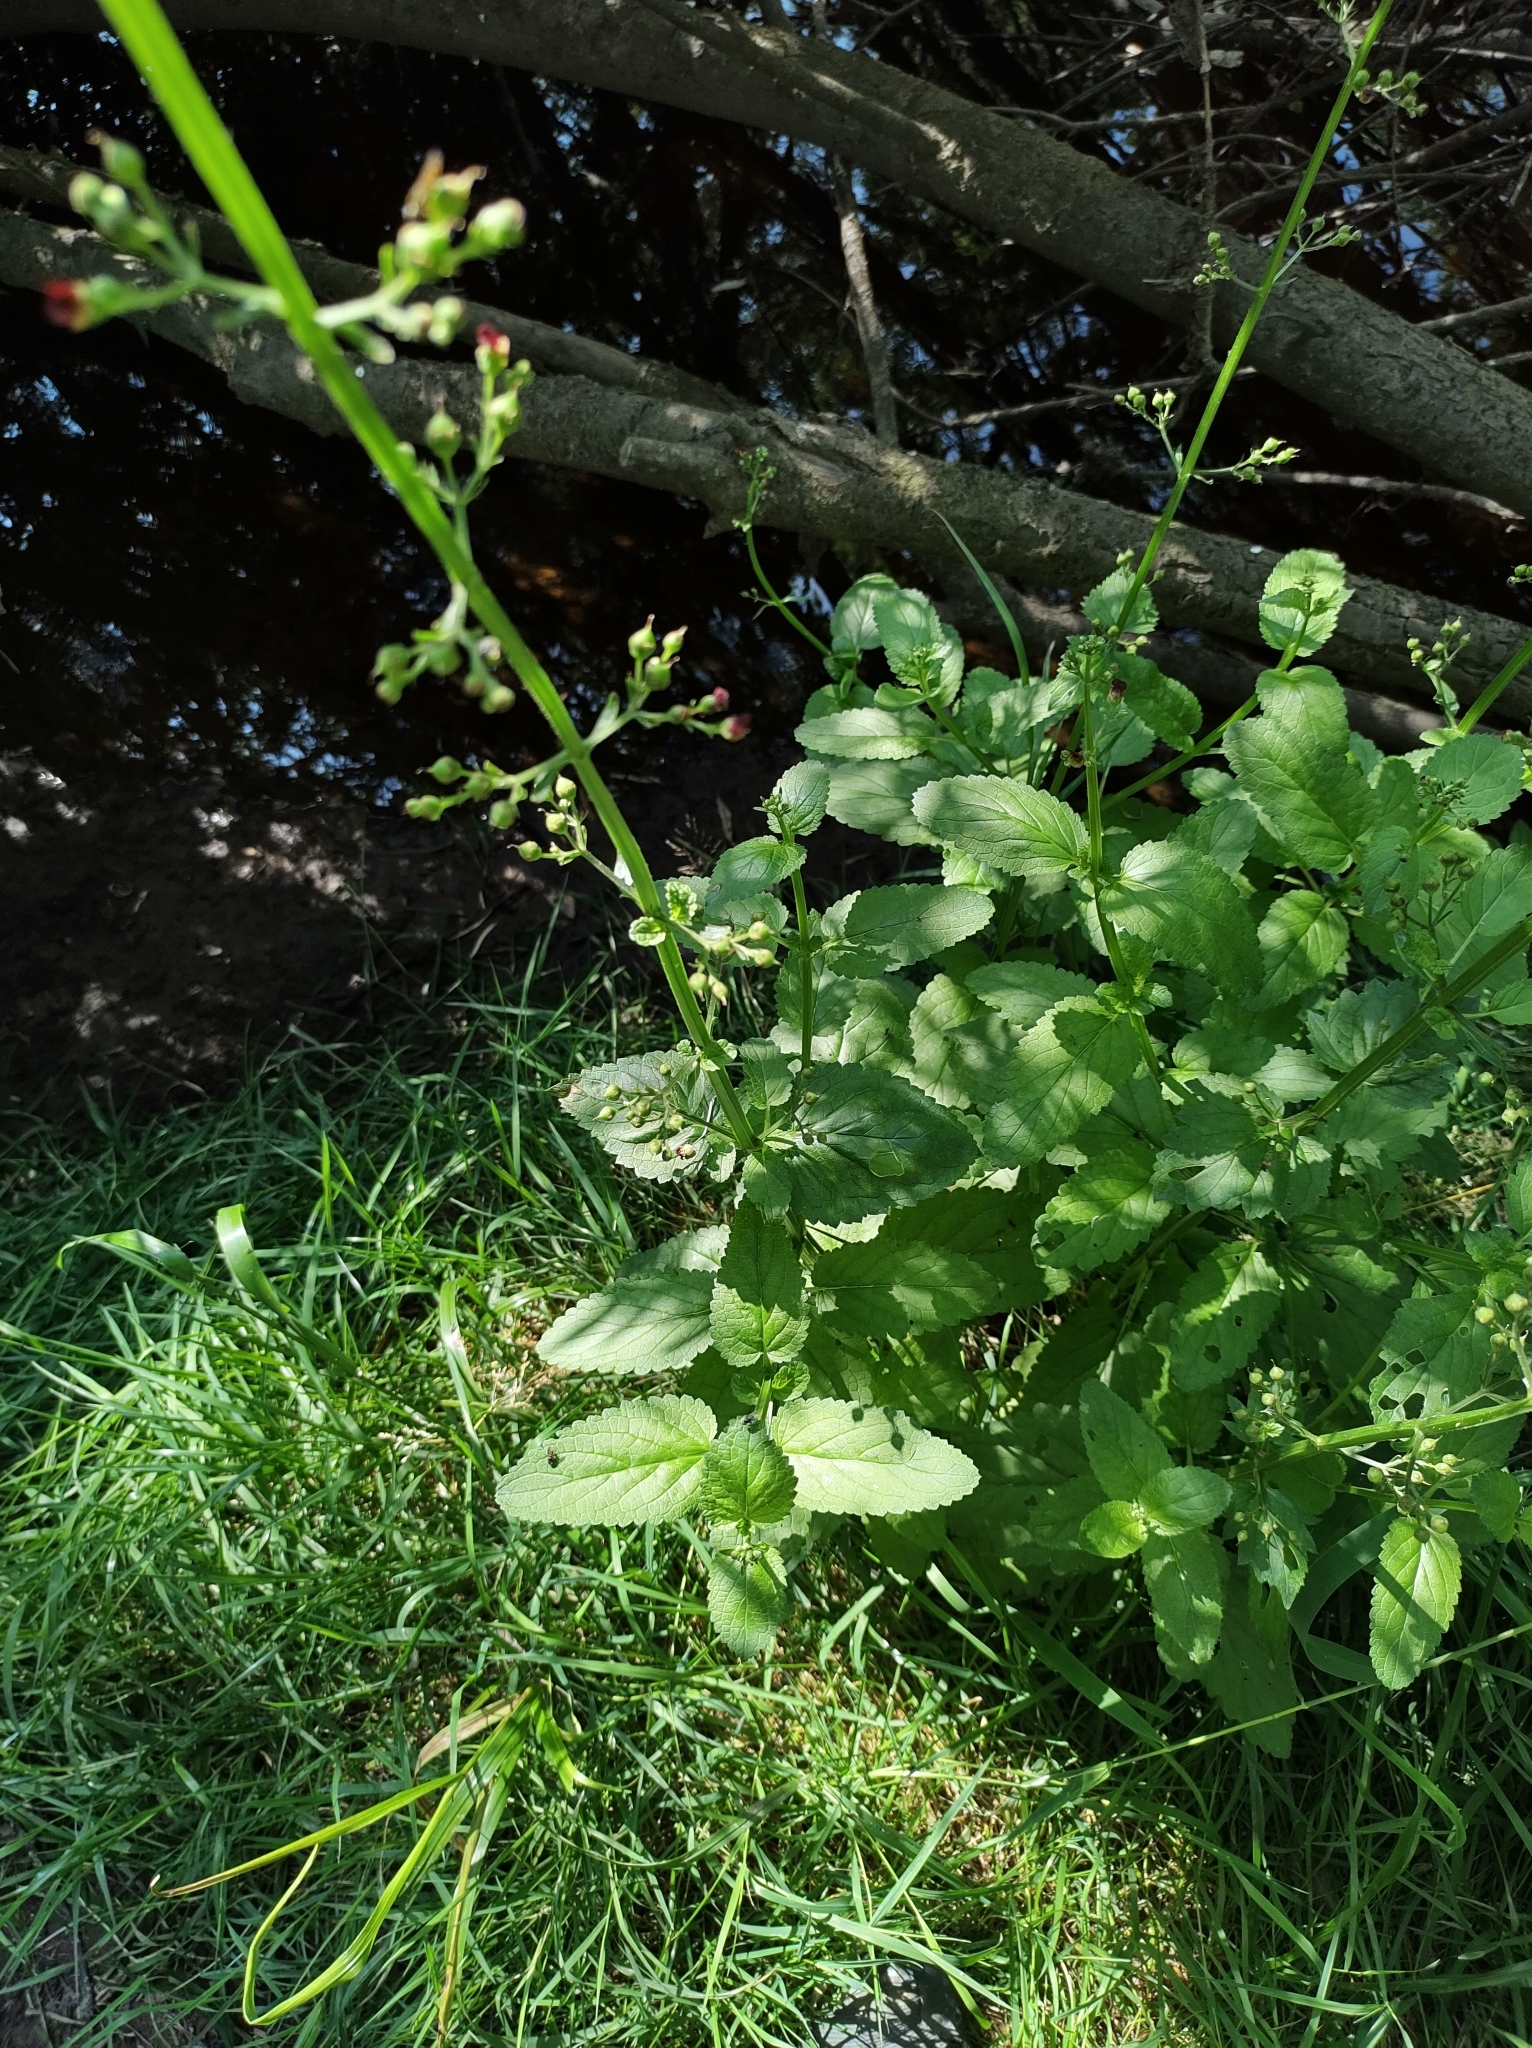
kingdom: Plantae
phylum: Tracheophyta
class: Magnoliopsida
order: Lamiales
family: Scrophulariaceae
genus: Scrophularia
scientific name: Scrophularia auriculata
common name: Water betony
